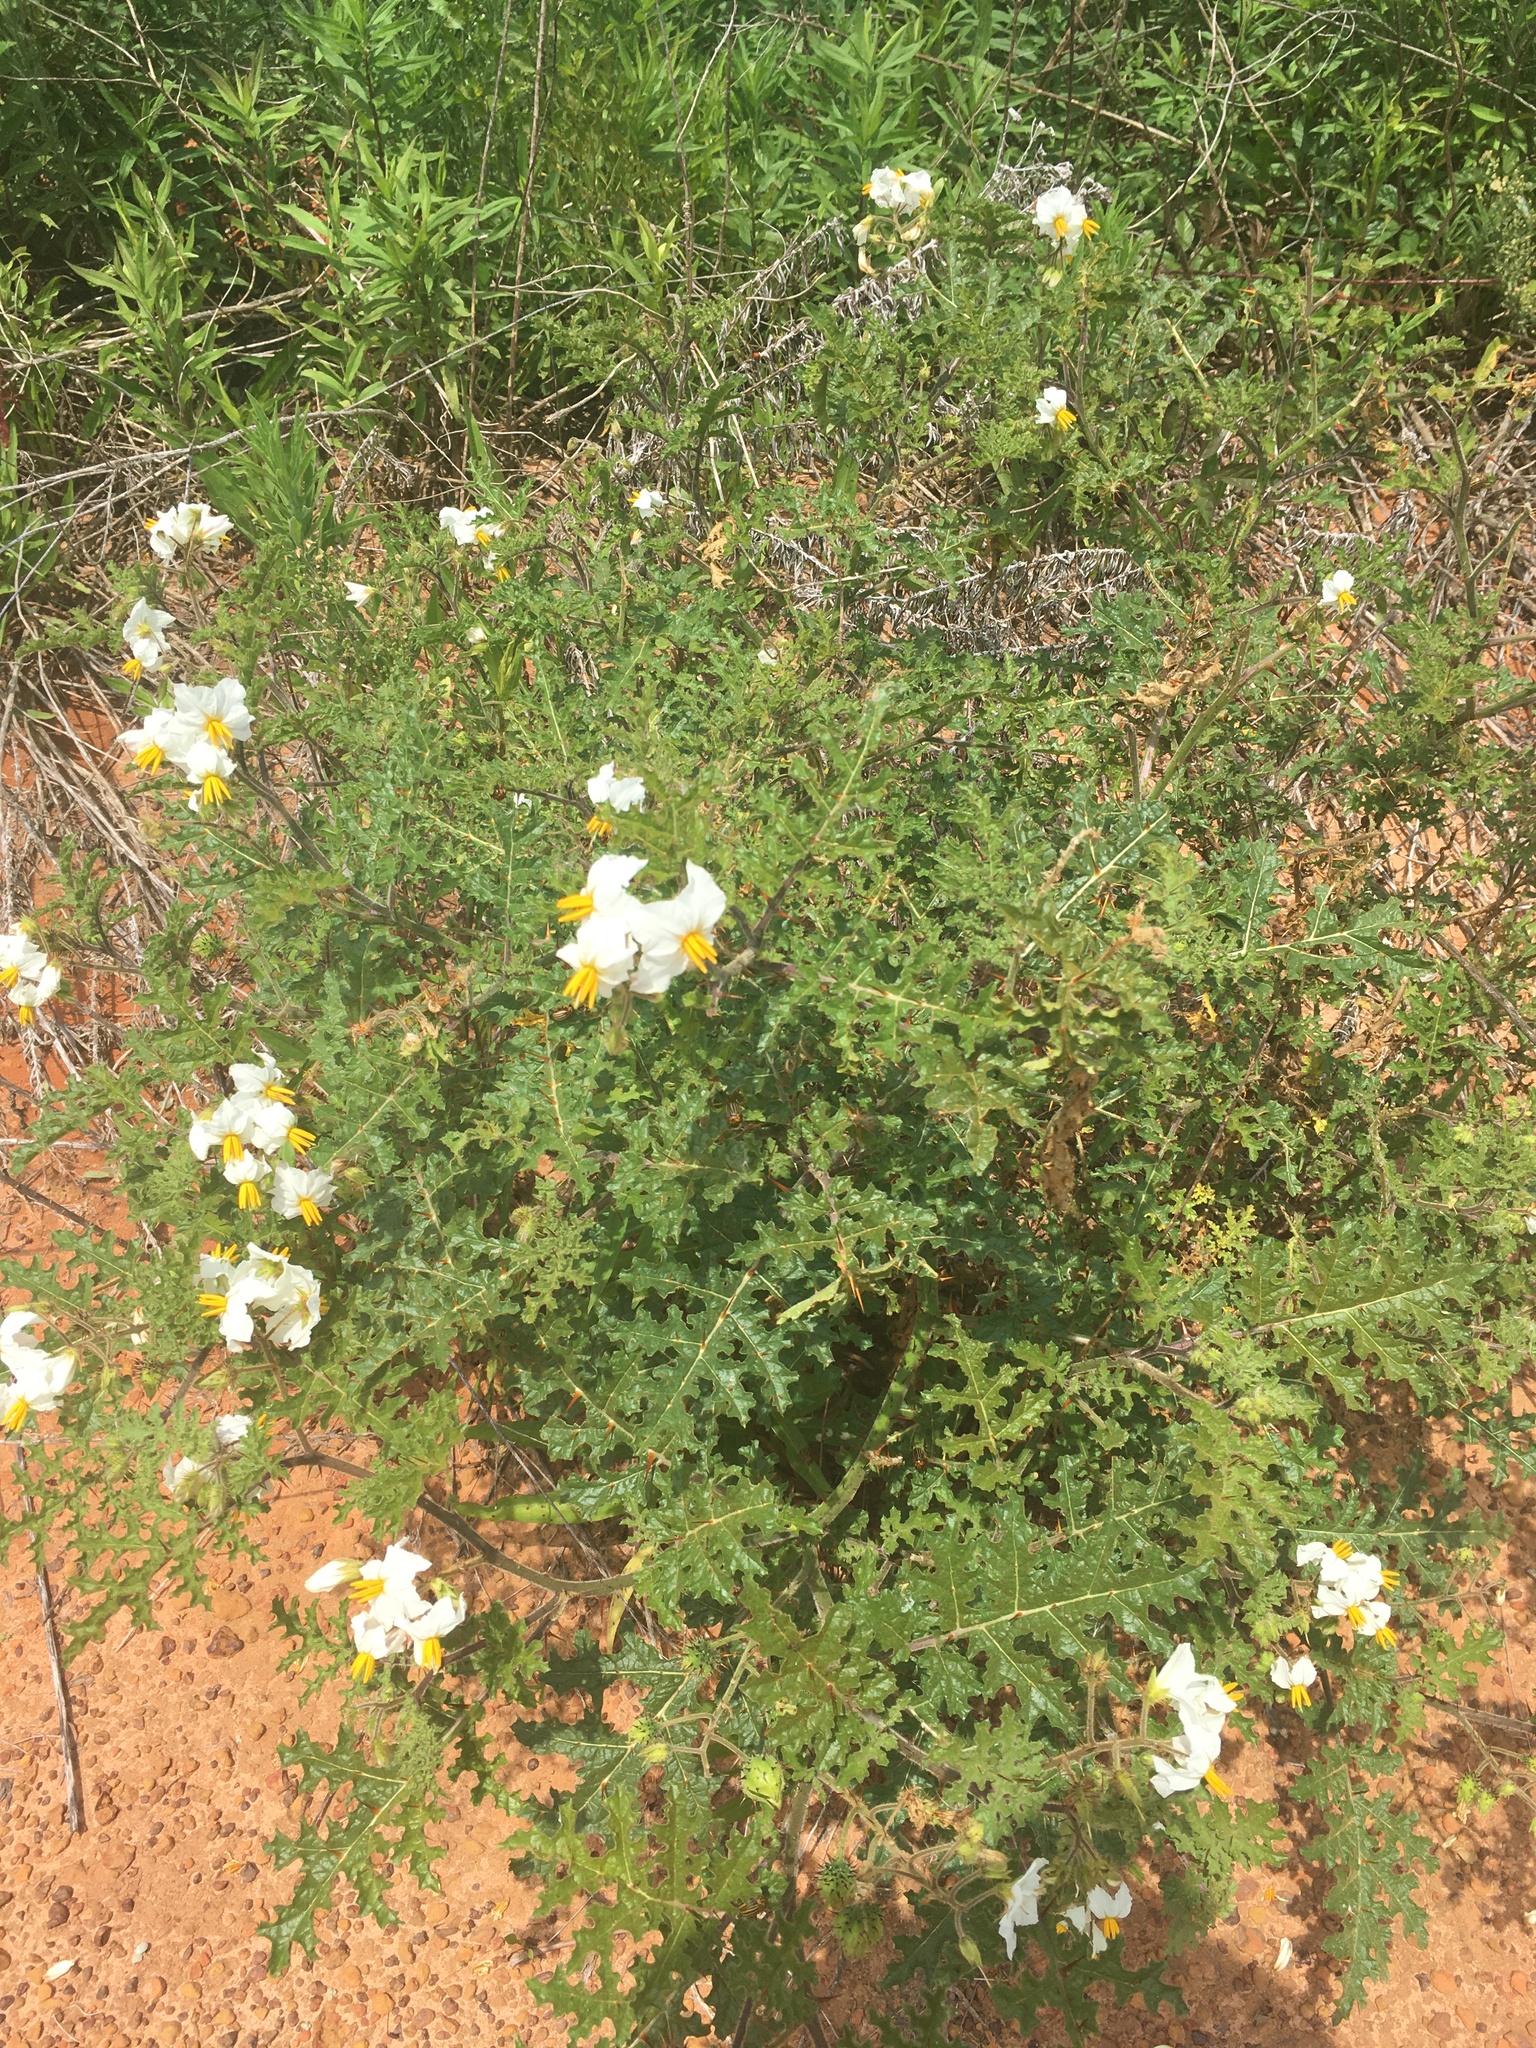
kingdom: Plantae
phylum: Tracheophyta
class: Magnoliopsida
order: Solanales
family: Solanaceae
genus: Solanum
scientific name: Solanum sisymbriifolium
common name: Red buffalo-bur
